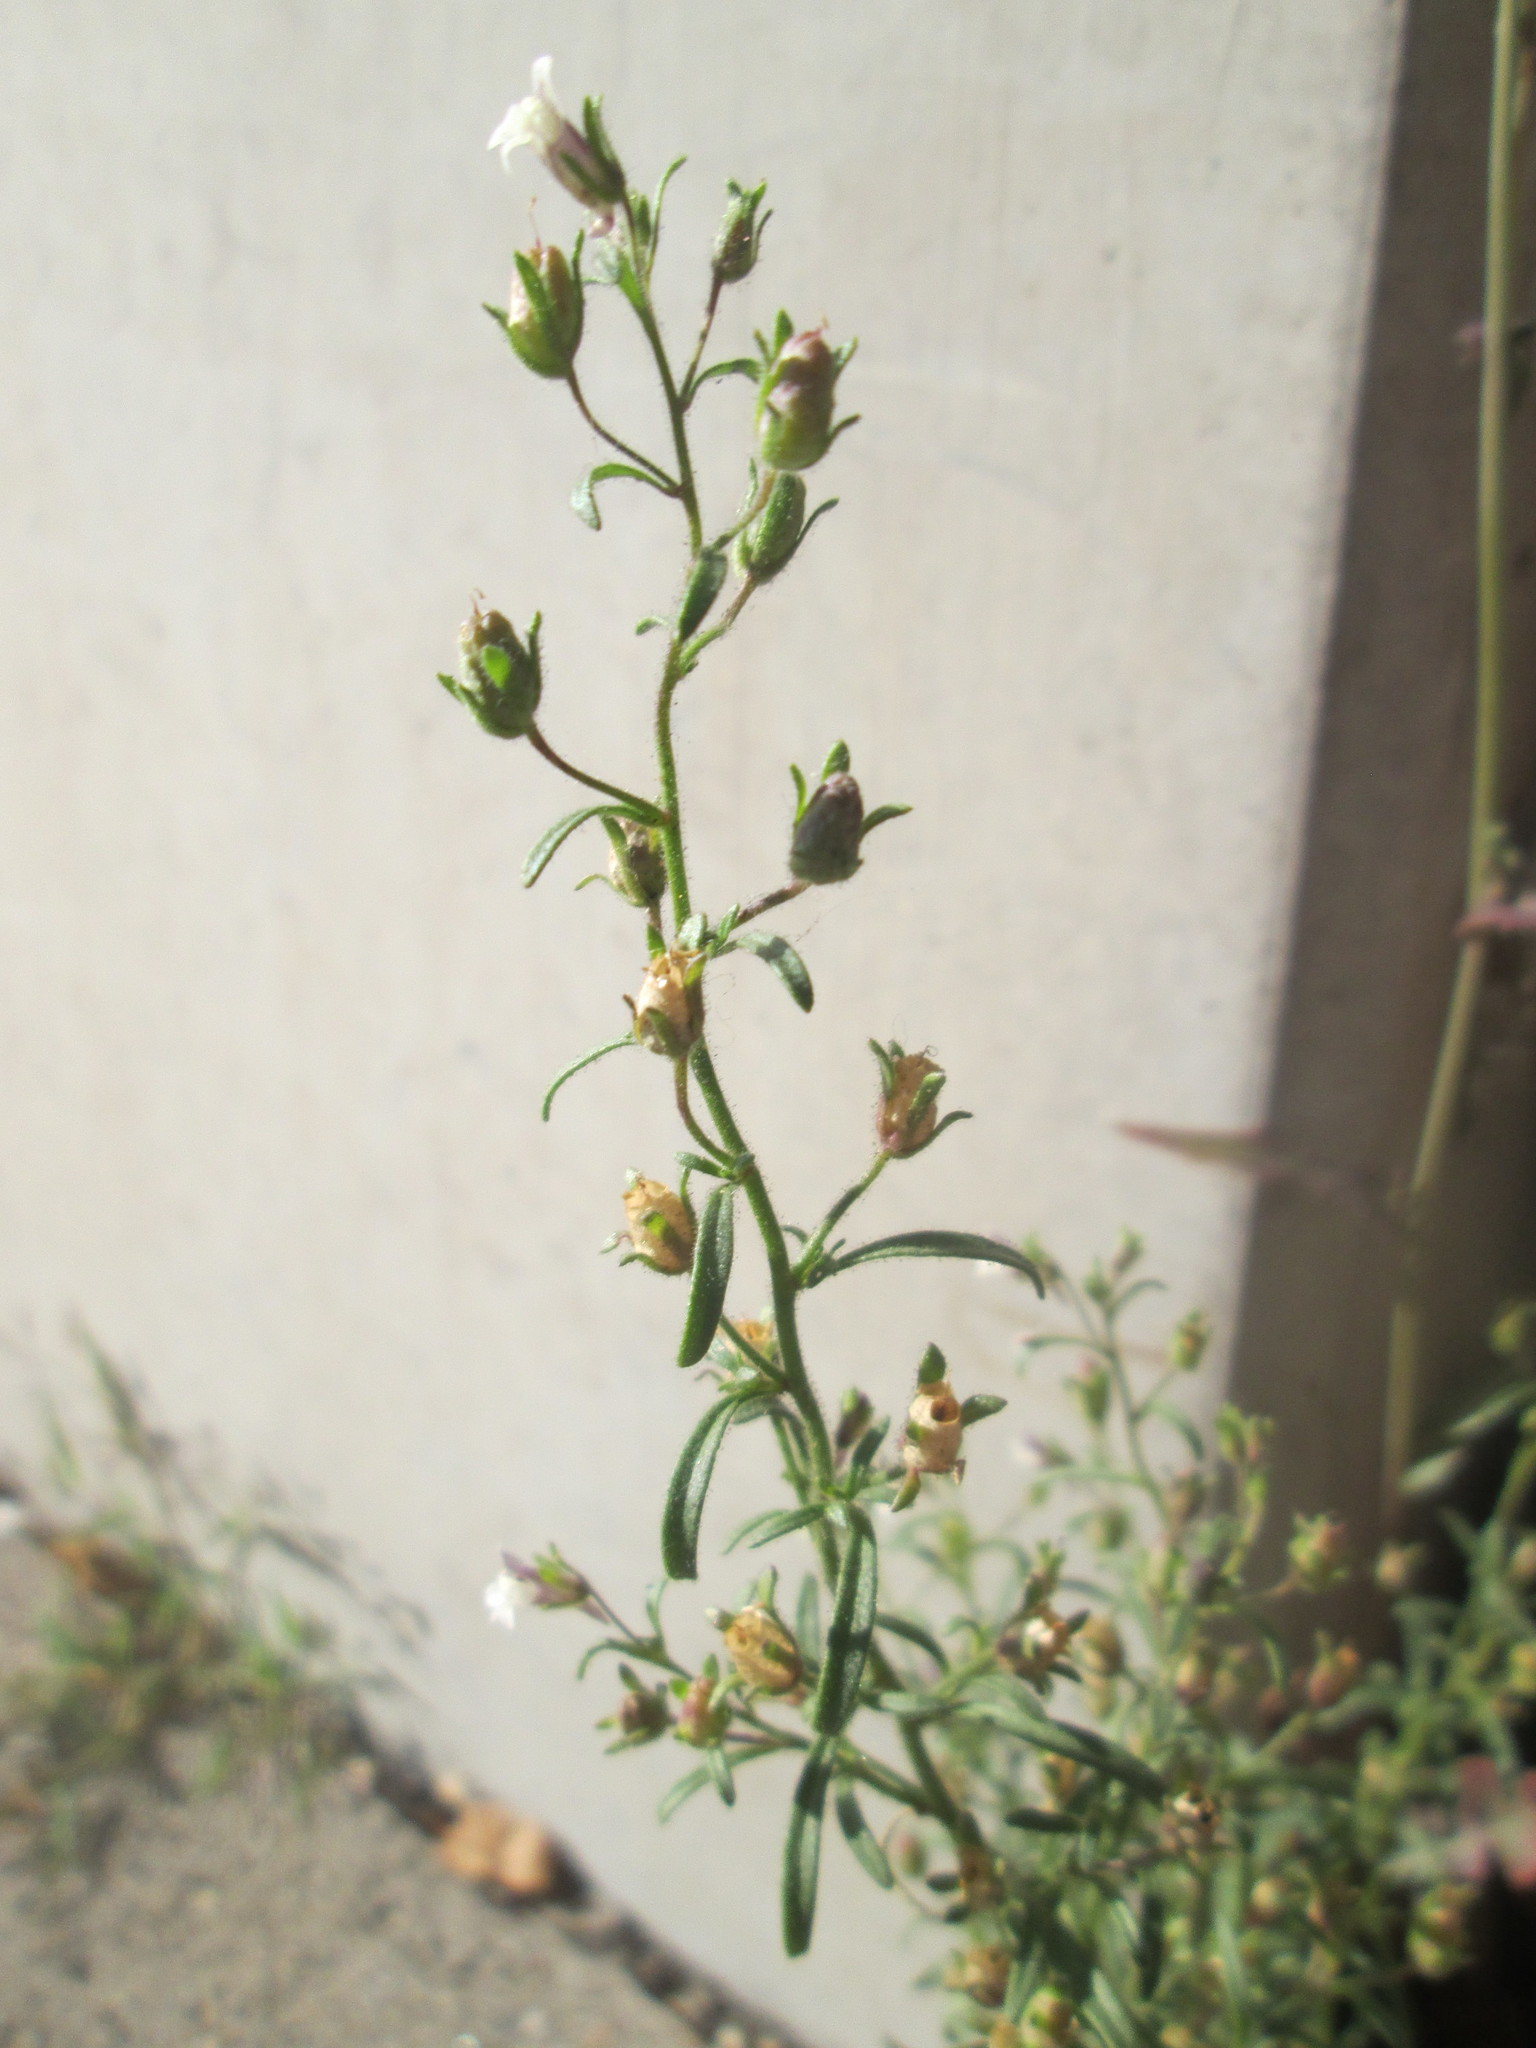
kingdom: Plantae
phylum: Tracheophyta
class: Magnoliopsida
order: Lamiales
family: Plantaginaceae
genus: Chaenorhinum
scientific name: Chaenorhinum minus
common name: Dwarf snapdragon
